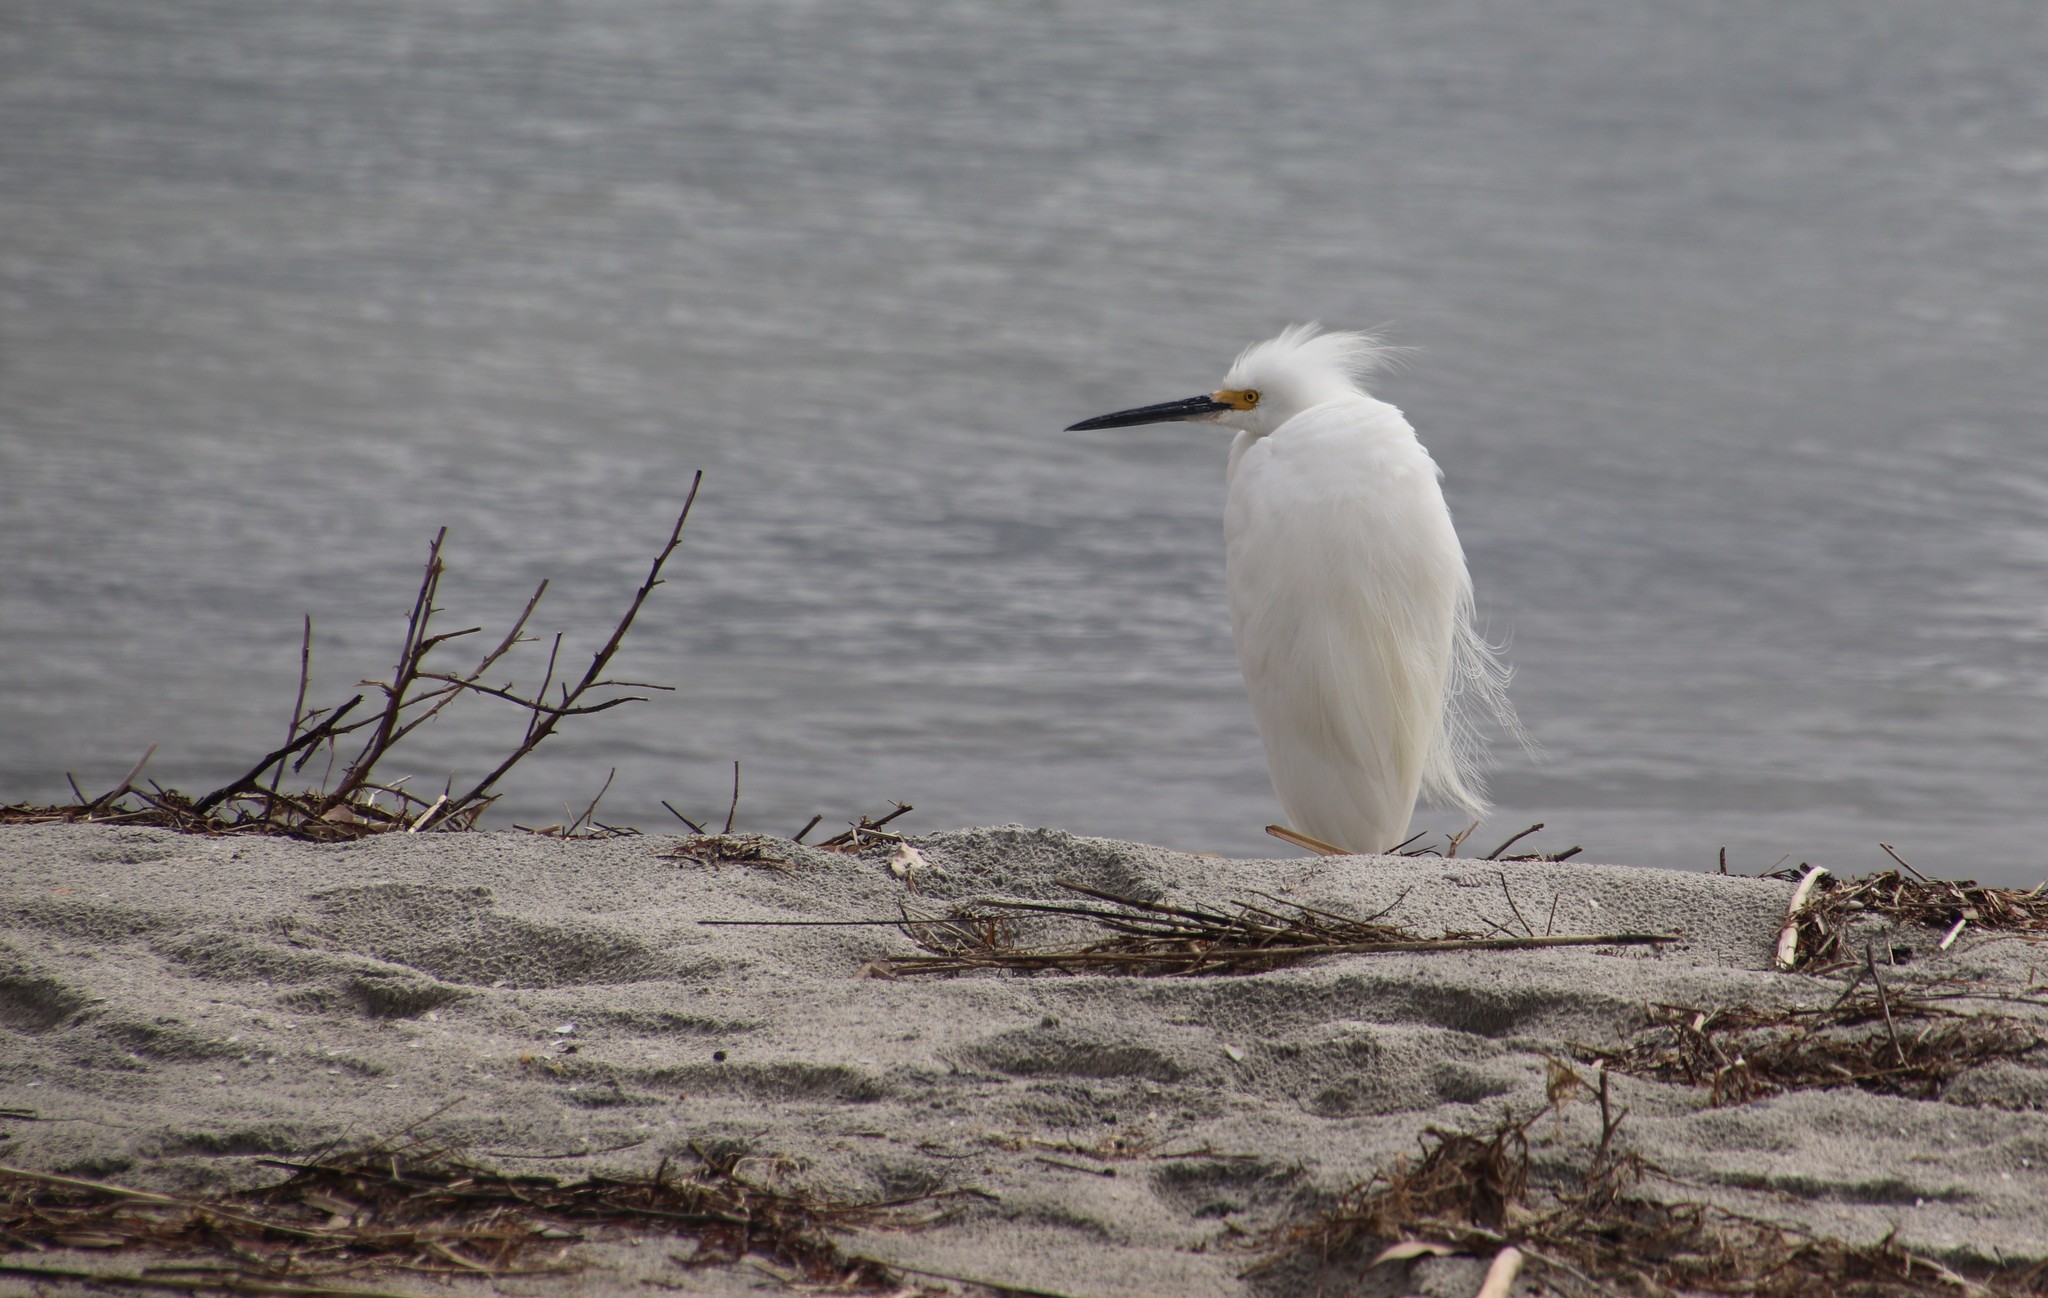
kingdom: Animalia
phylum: Chordata
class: Aves
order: Pelecaniformes
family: Ardeidae
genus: Egretta
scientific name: Egretta thula
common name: Snowy egret
